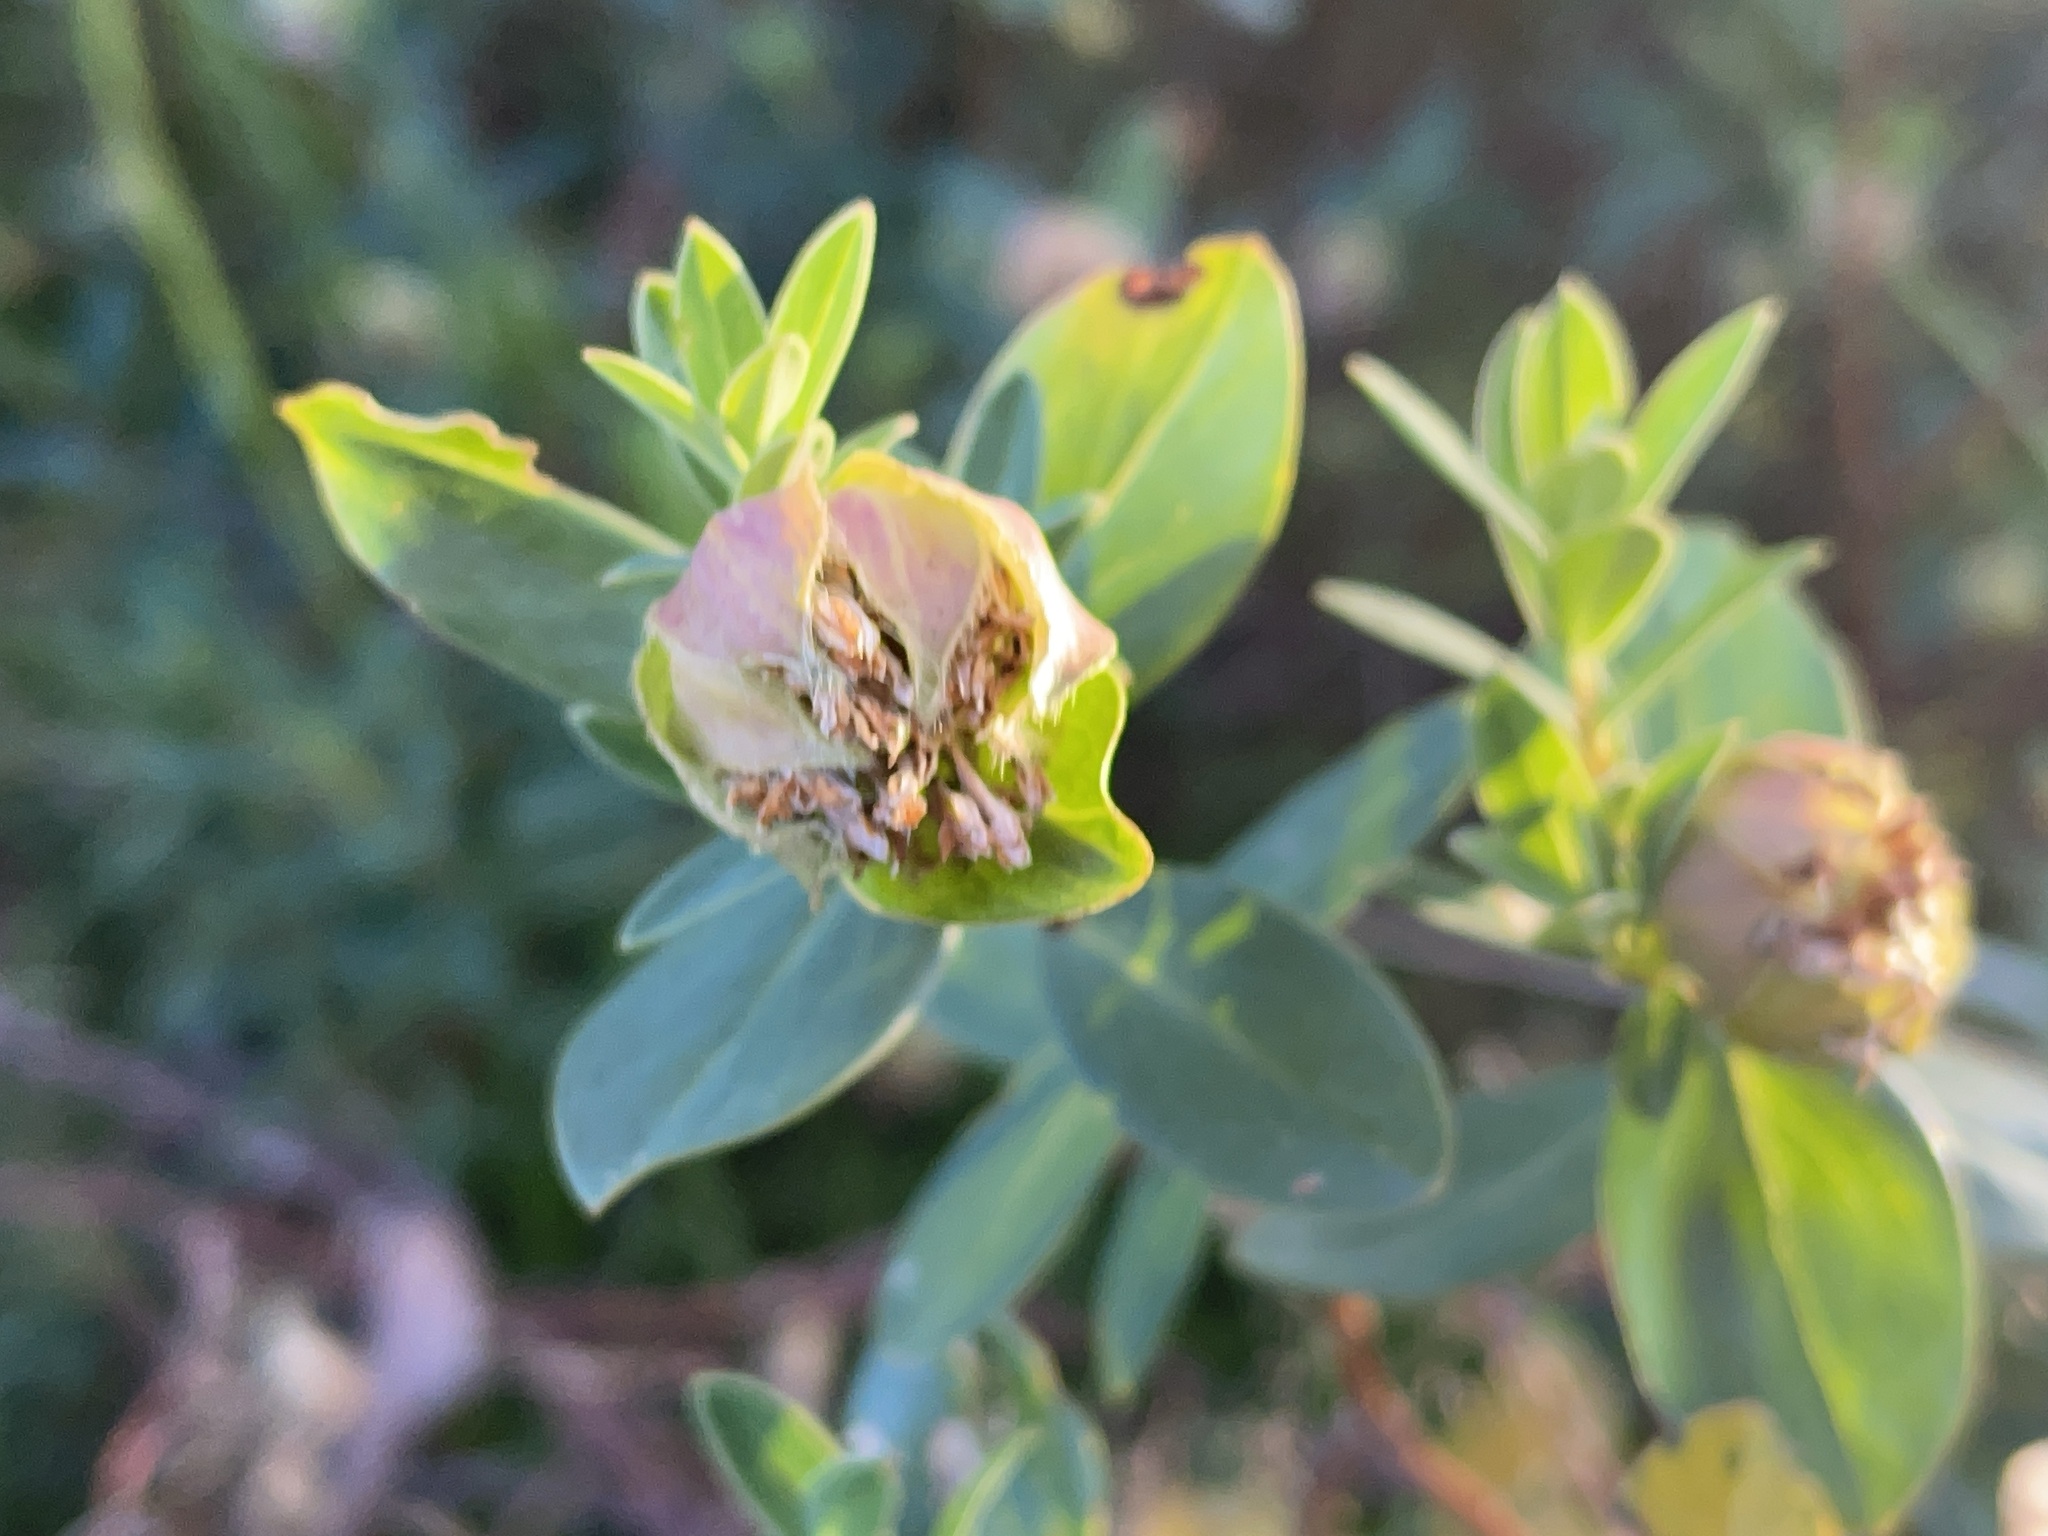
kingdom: Plantae
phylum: Tracheophyta
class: Magnoliopsida
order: Malvales
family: Thymelaeaceae
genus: Pimelea
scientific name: Pimelea ligustrina
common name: Tall riceflower
